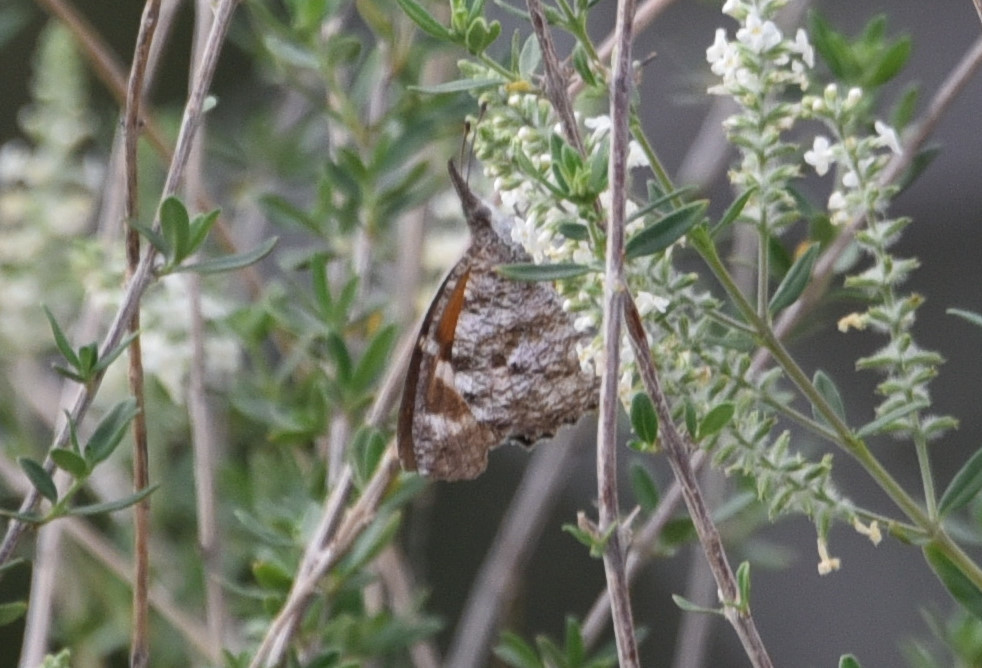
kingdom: Animalia
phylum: Arthropoda
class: Insecta
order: Lepidoptera
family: Nymphalidae
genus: Libytheana
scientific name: Libytheana carinenta
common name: American snout
